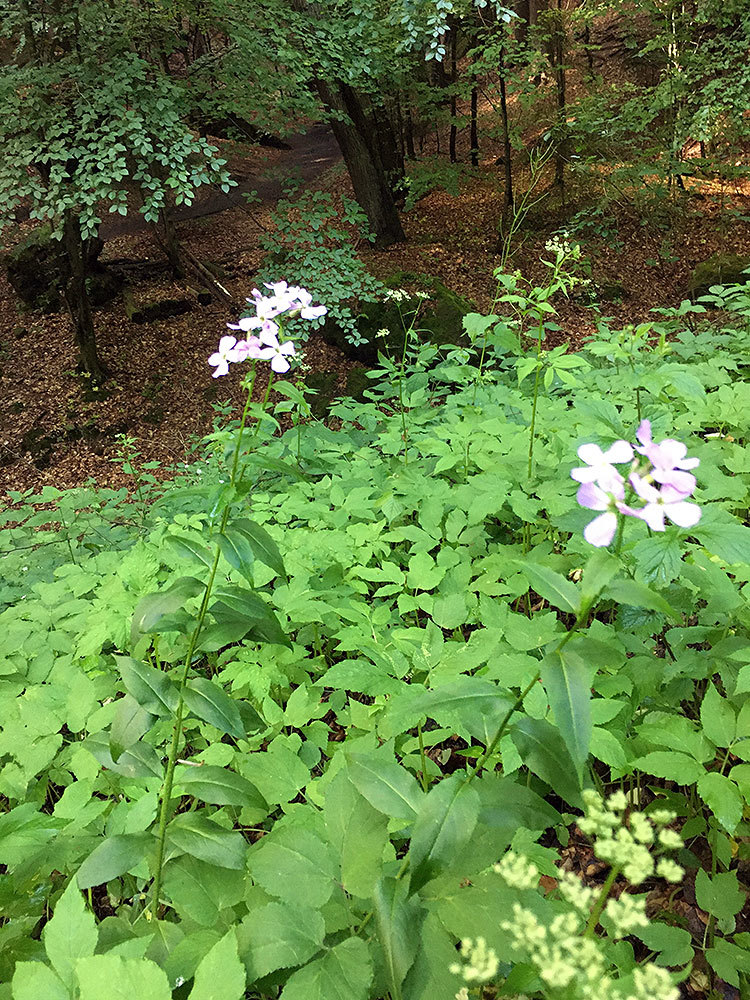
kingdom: Plantae
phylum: Tracheophyta
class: Magnoliopsida
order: Brassicales
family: Brassicaceae
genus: Hesperis
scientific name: Hesperis matronalis
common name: Dame's-violet
